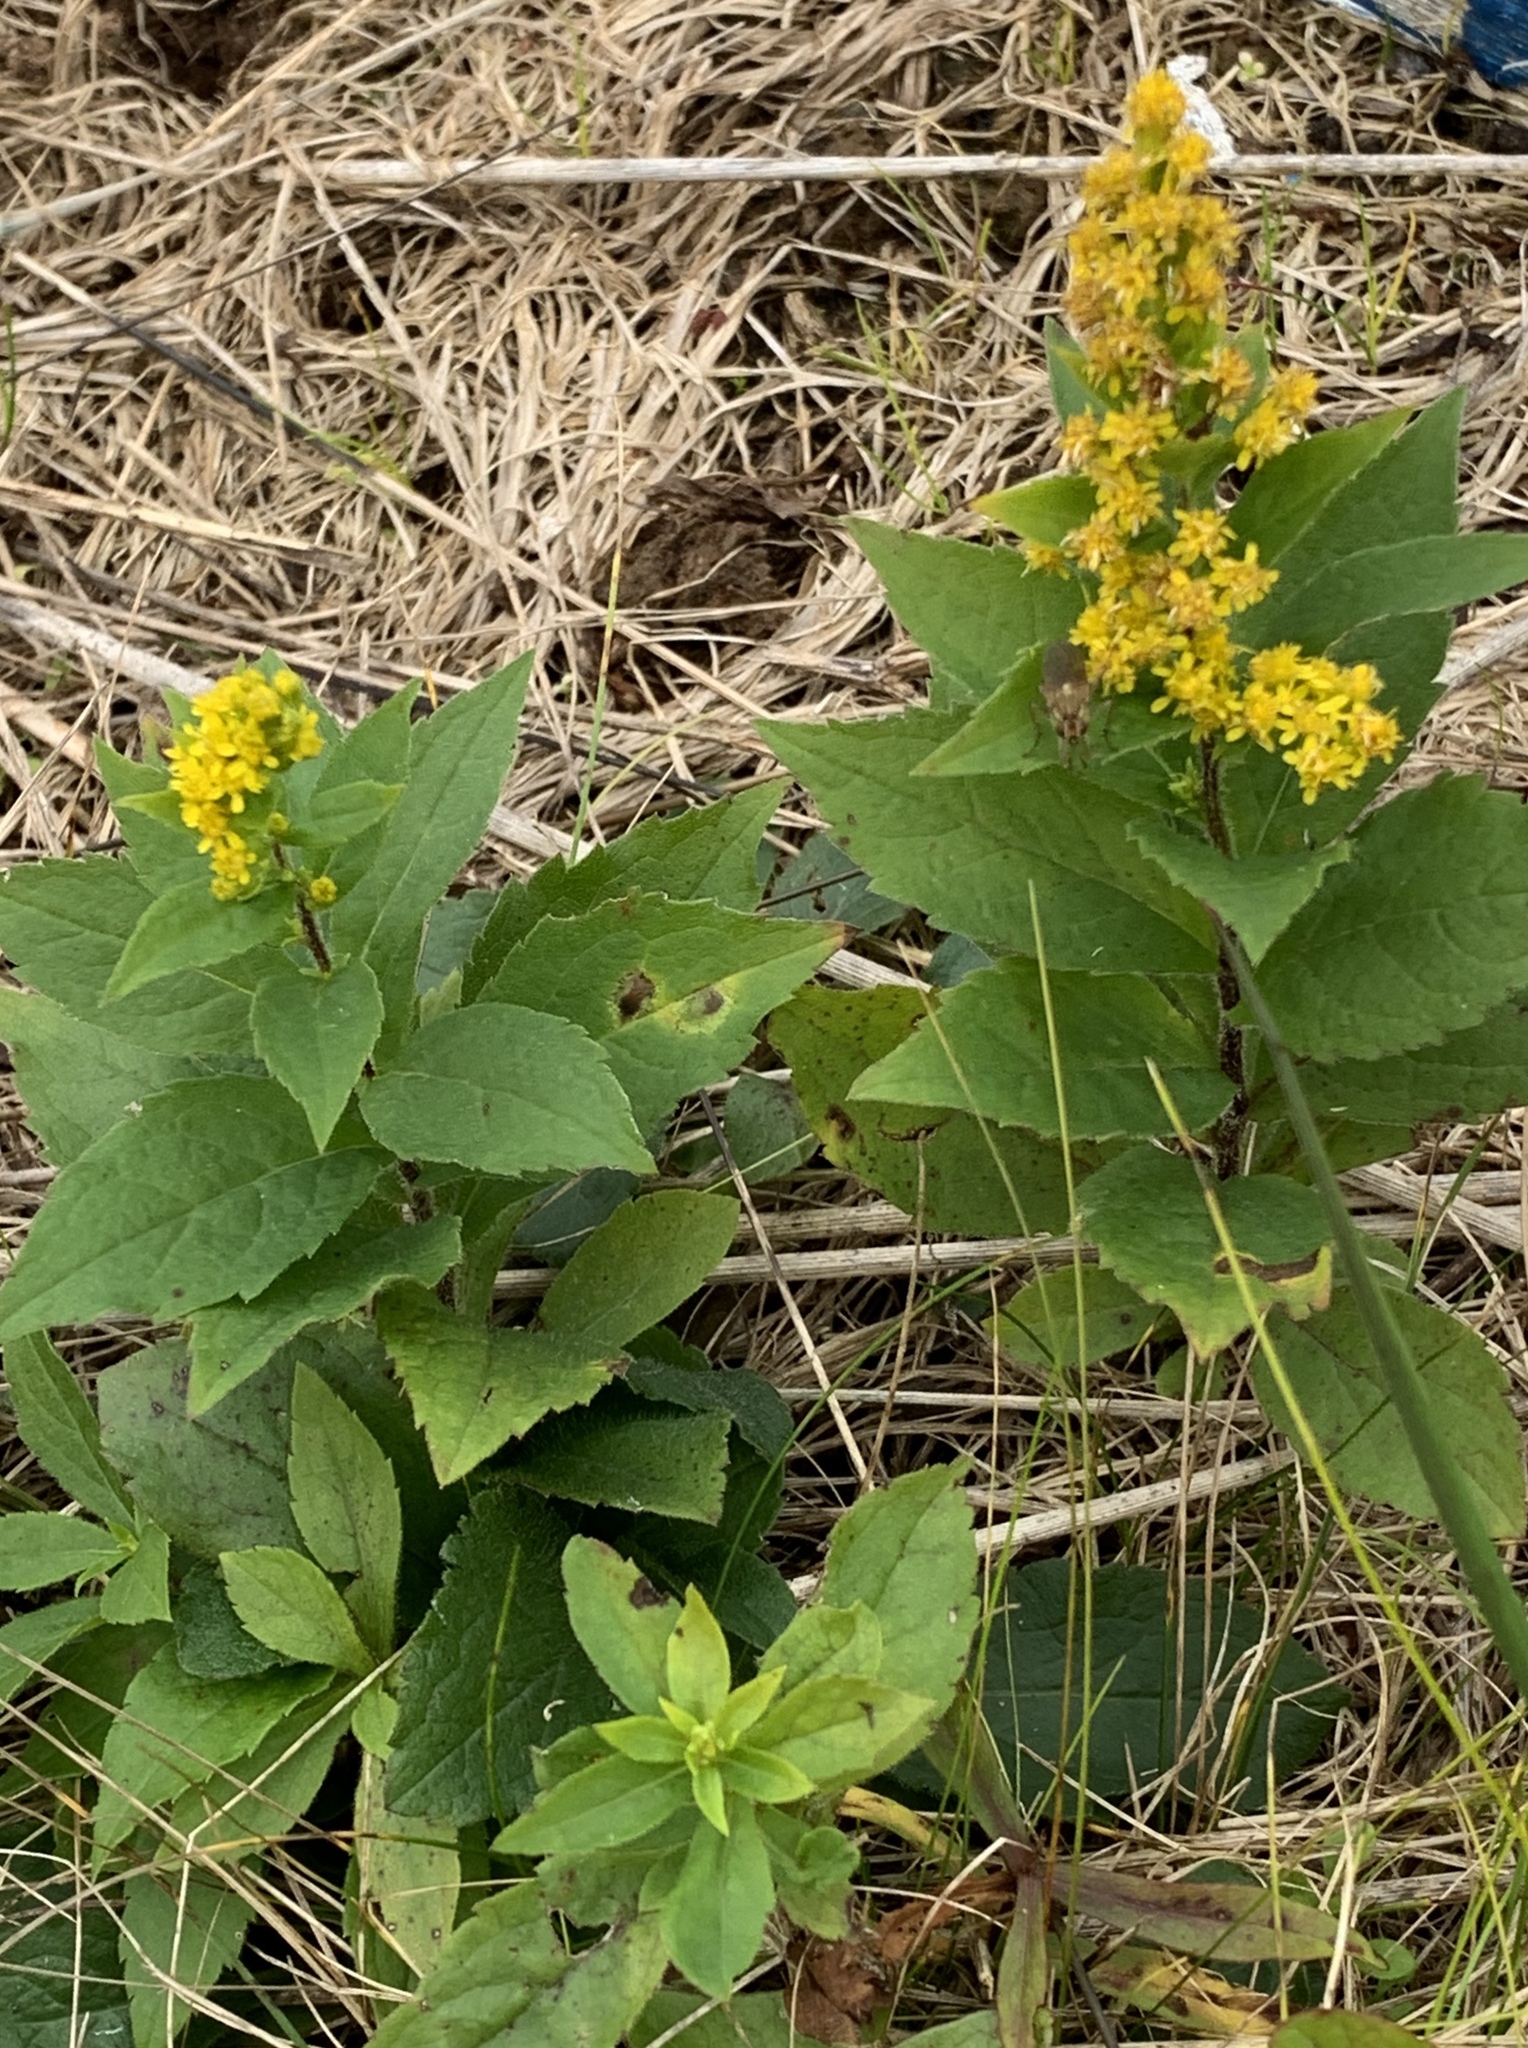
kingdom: Plantae
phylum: Tracheophyta
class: Magnoliopsida
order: Asterales
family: Asteraceae
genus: Solidago
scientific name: Solidago rugosa
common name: Rough-stemmed goldenrod
